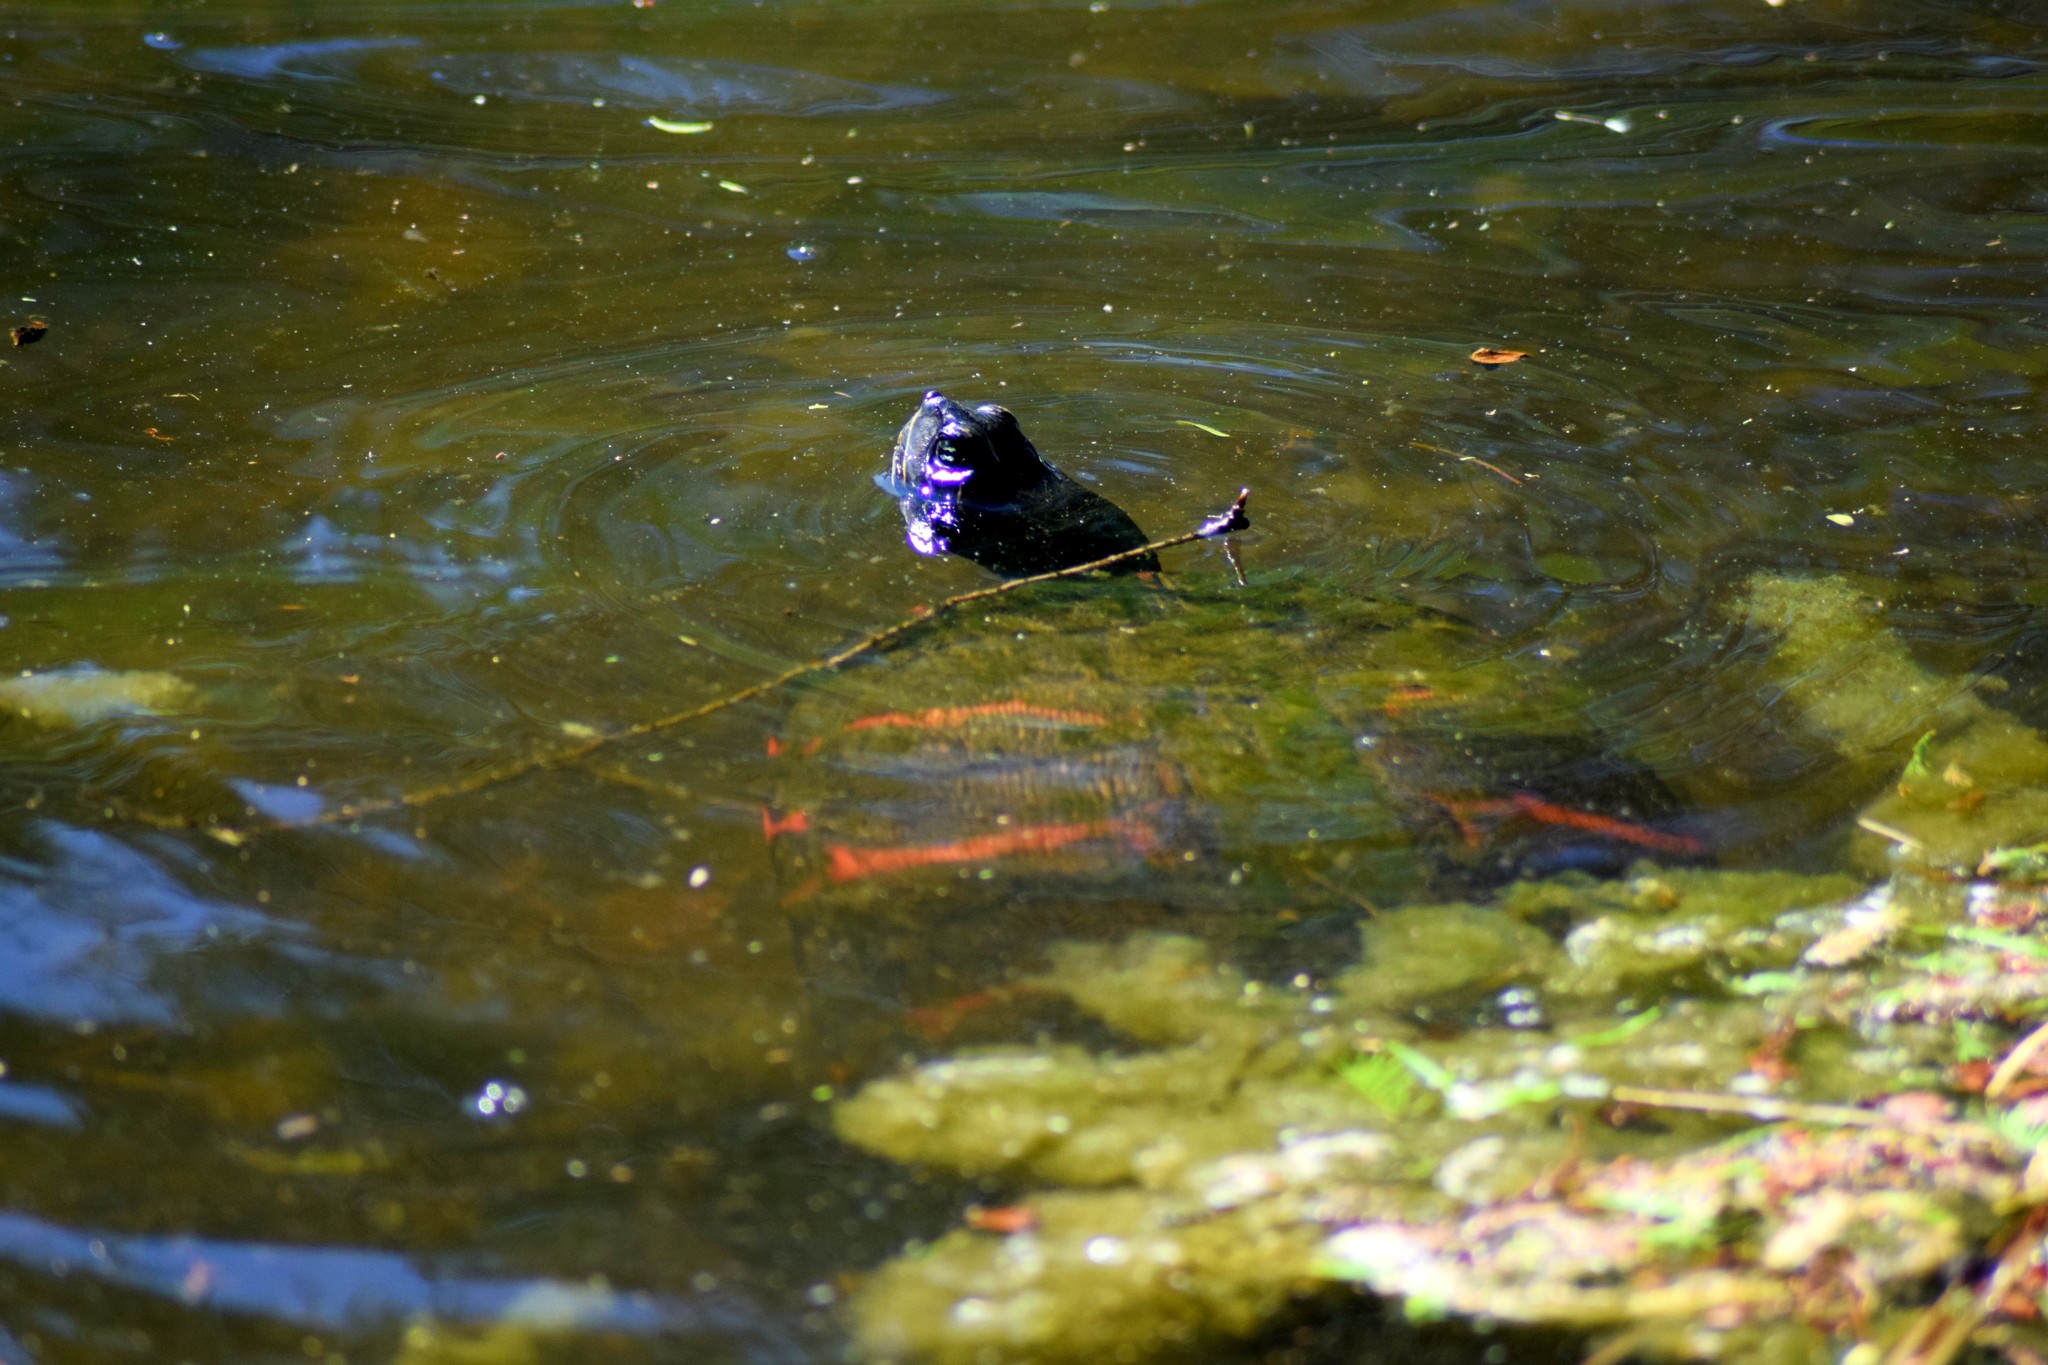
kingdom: Animalia
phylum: Chordata
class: Testudines
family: Emydidae
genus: Pseudemys
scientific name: Pseudemys rubriventris
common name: American red-bellied turtle
